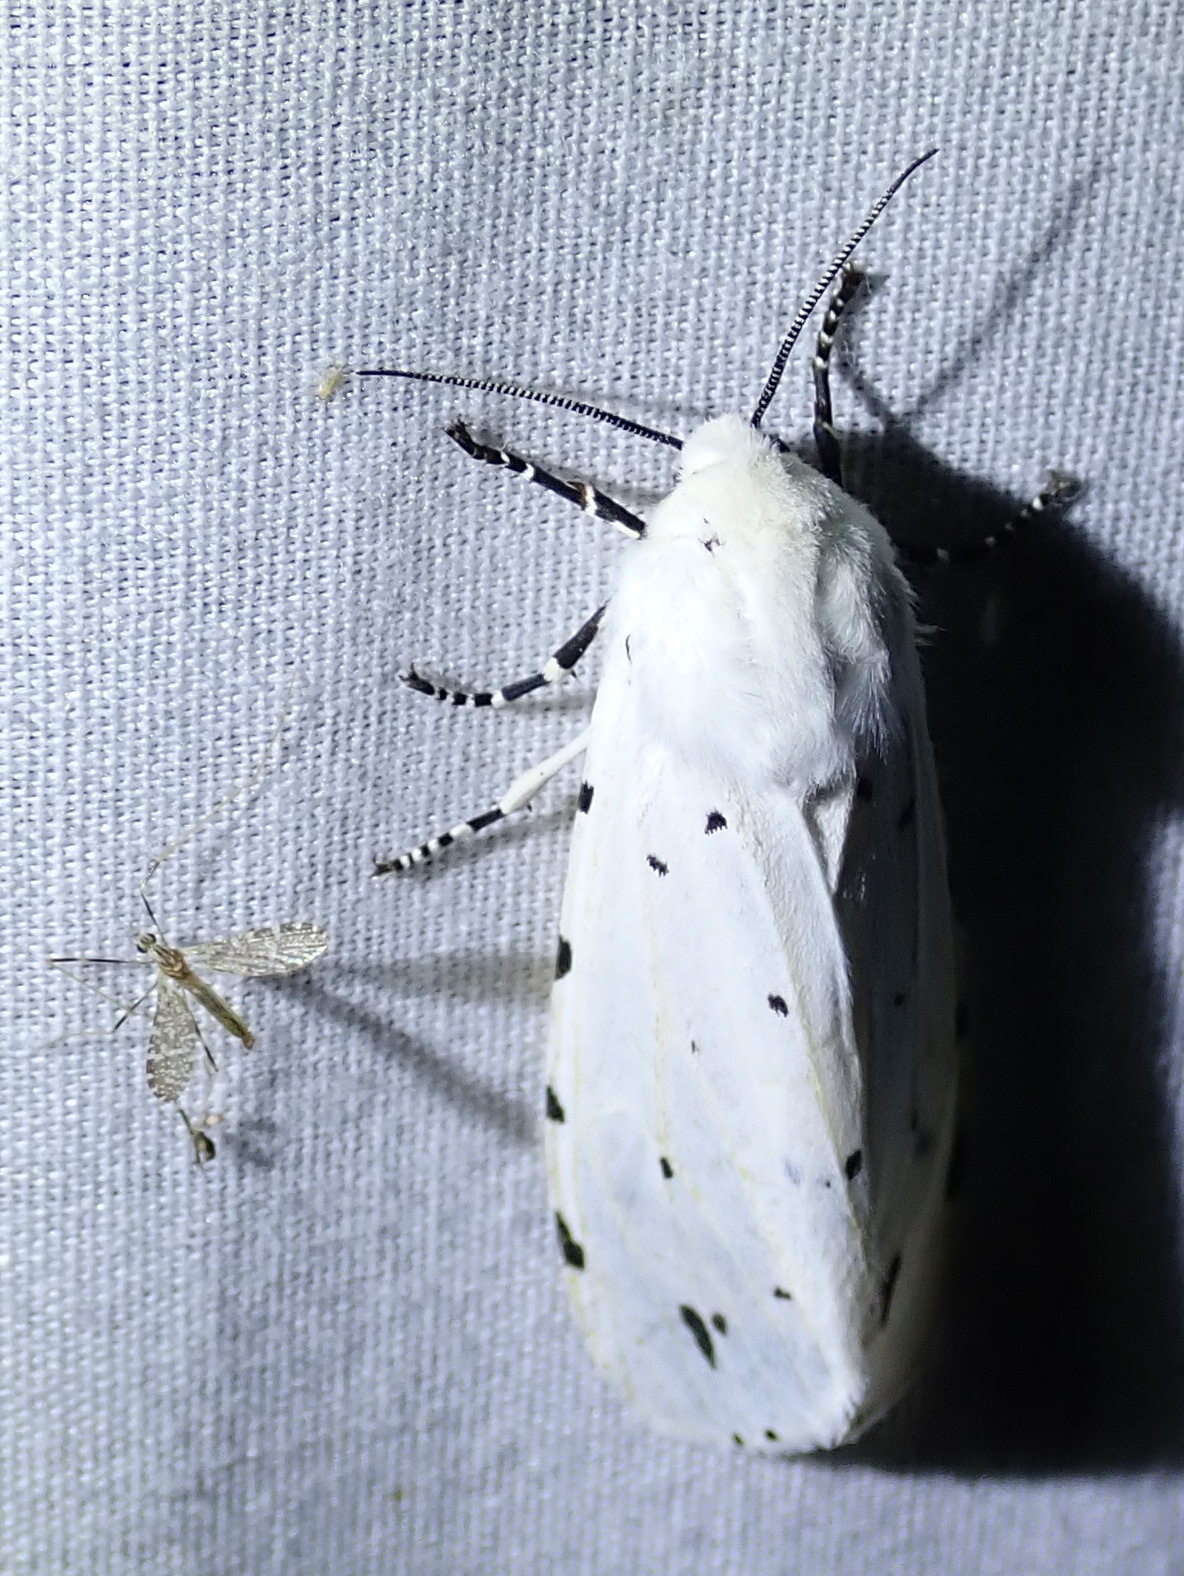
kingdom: Animalia
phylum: Arthropoda
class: Insecta
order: Lepidoptera
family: Erebidae
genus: Estigmene
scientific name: Estigmene
